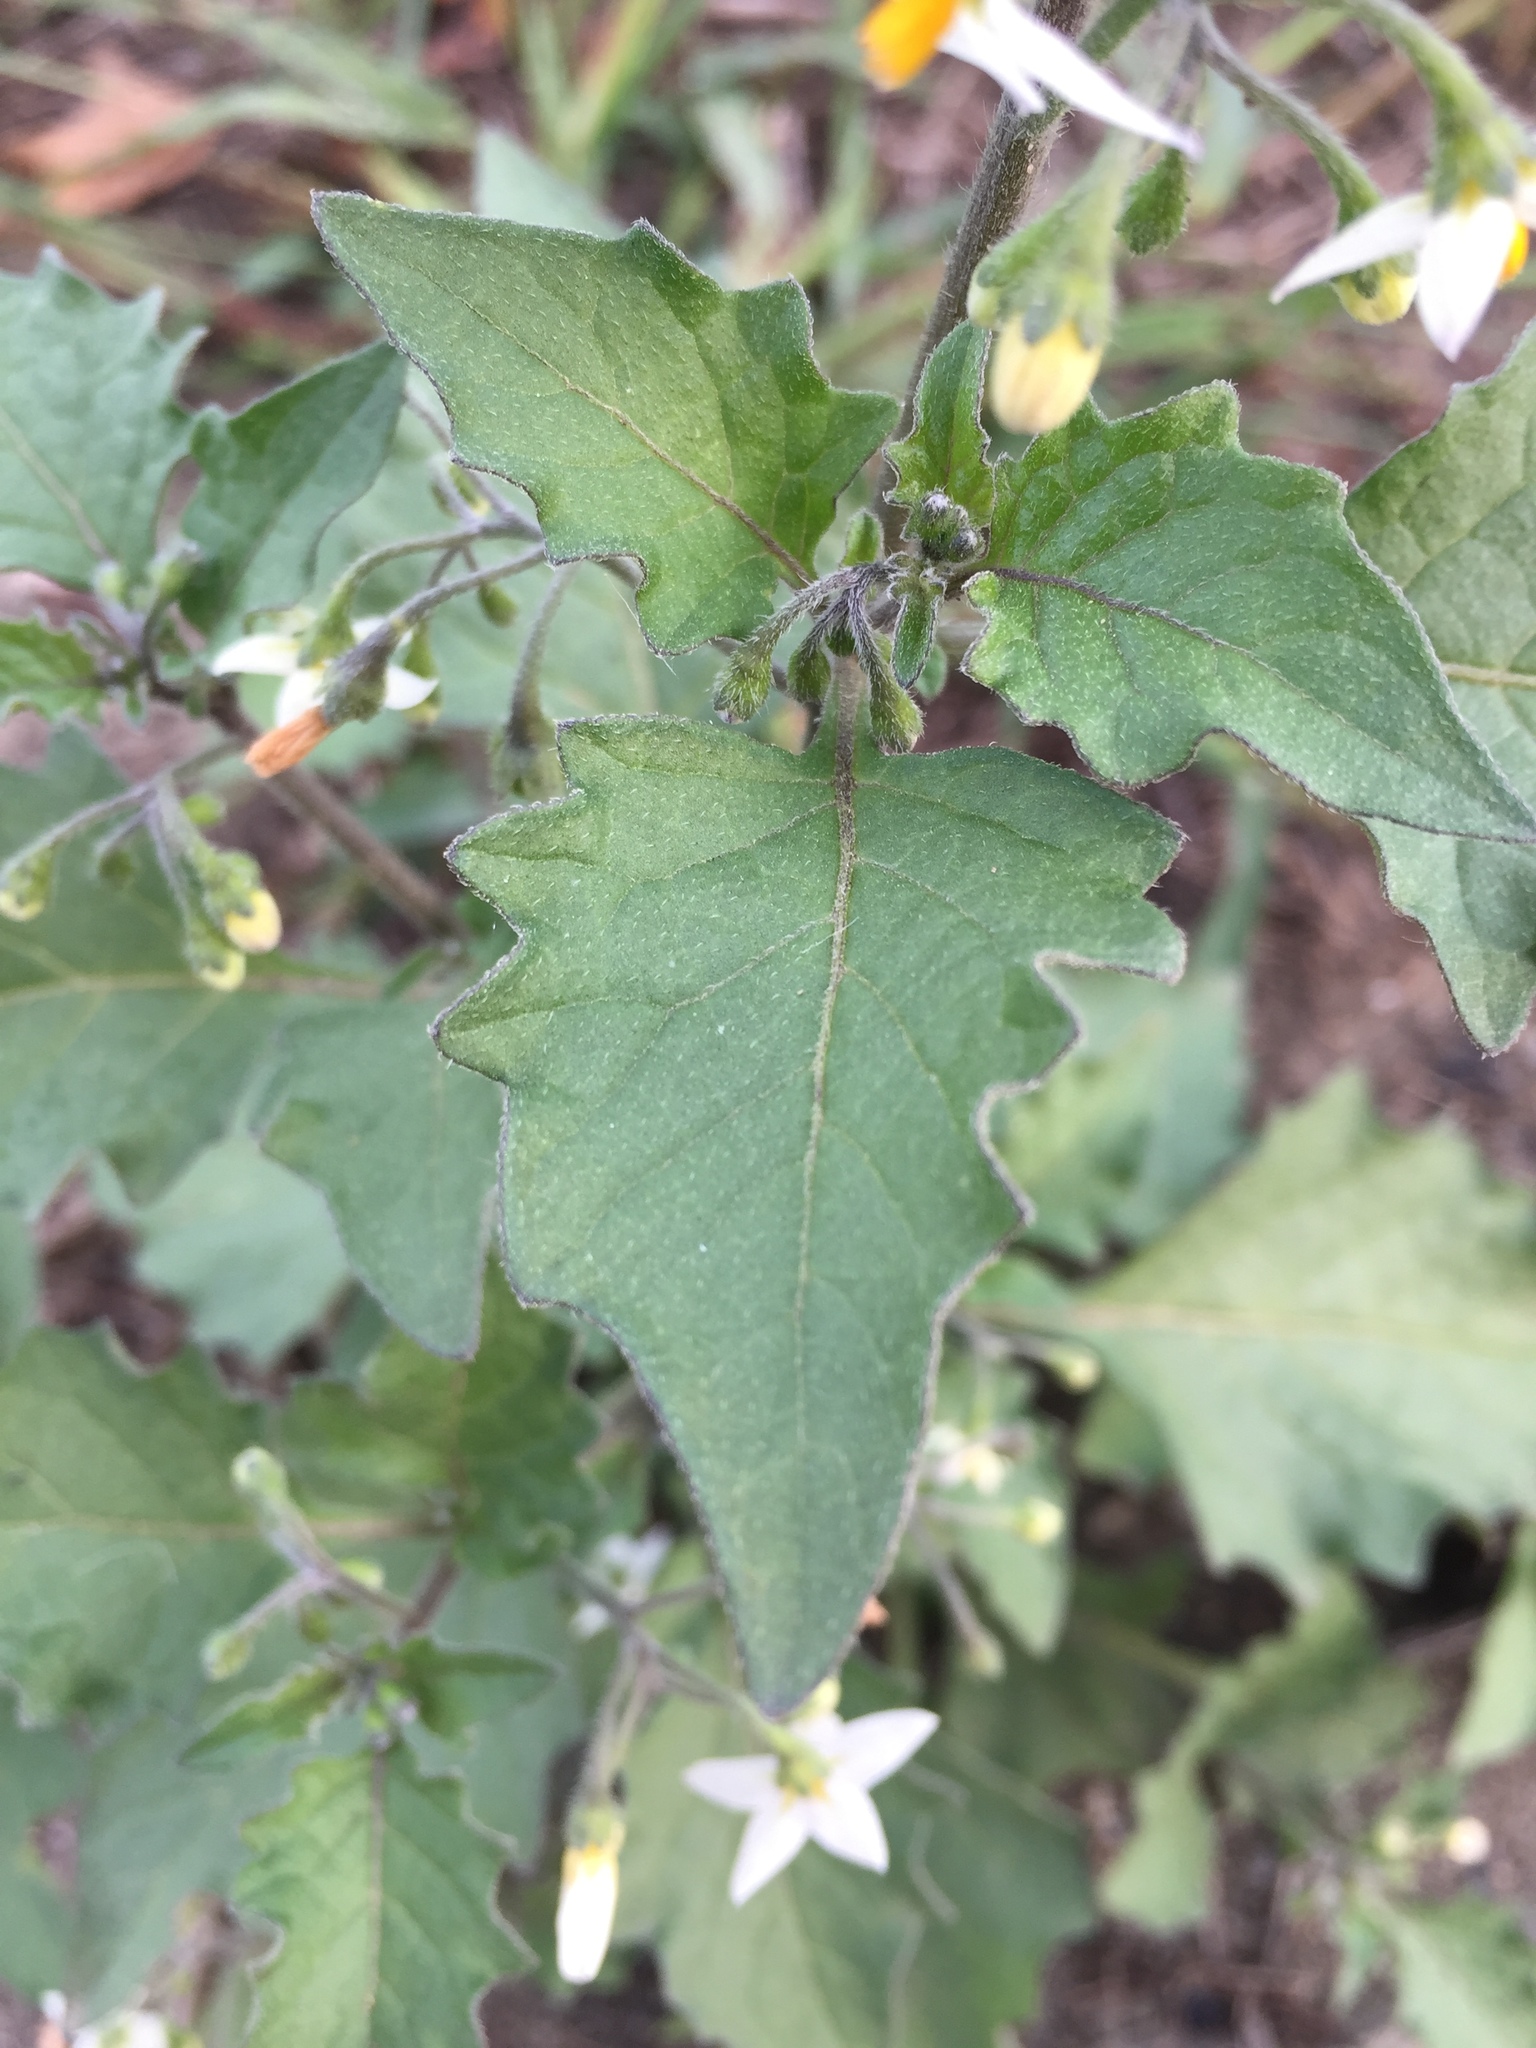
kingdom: Plantae
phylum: Tracheophyta
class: Magnoliopsida
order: Solanales
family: Solanaceae
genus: Solanum
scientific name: Solanum nigrum
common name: Black nightshade
